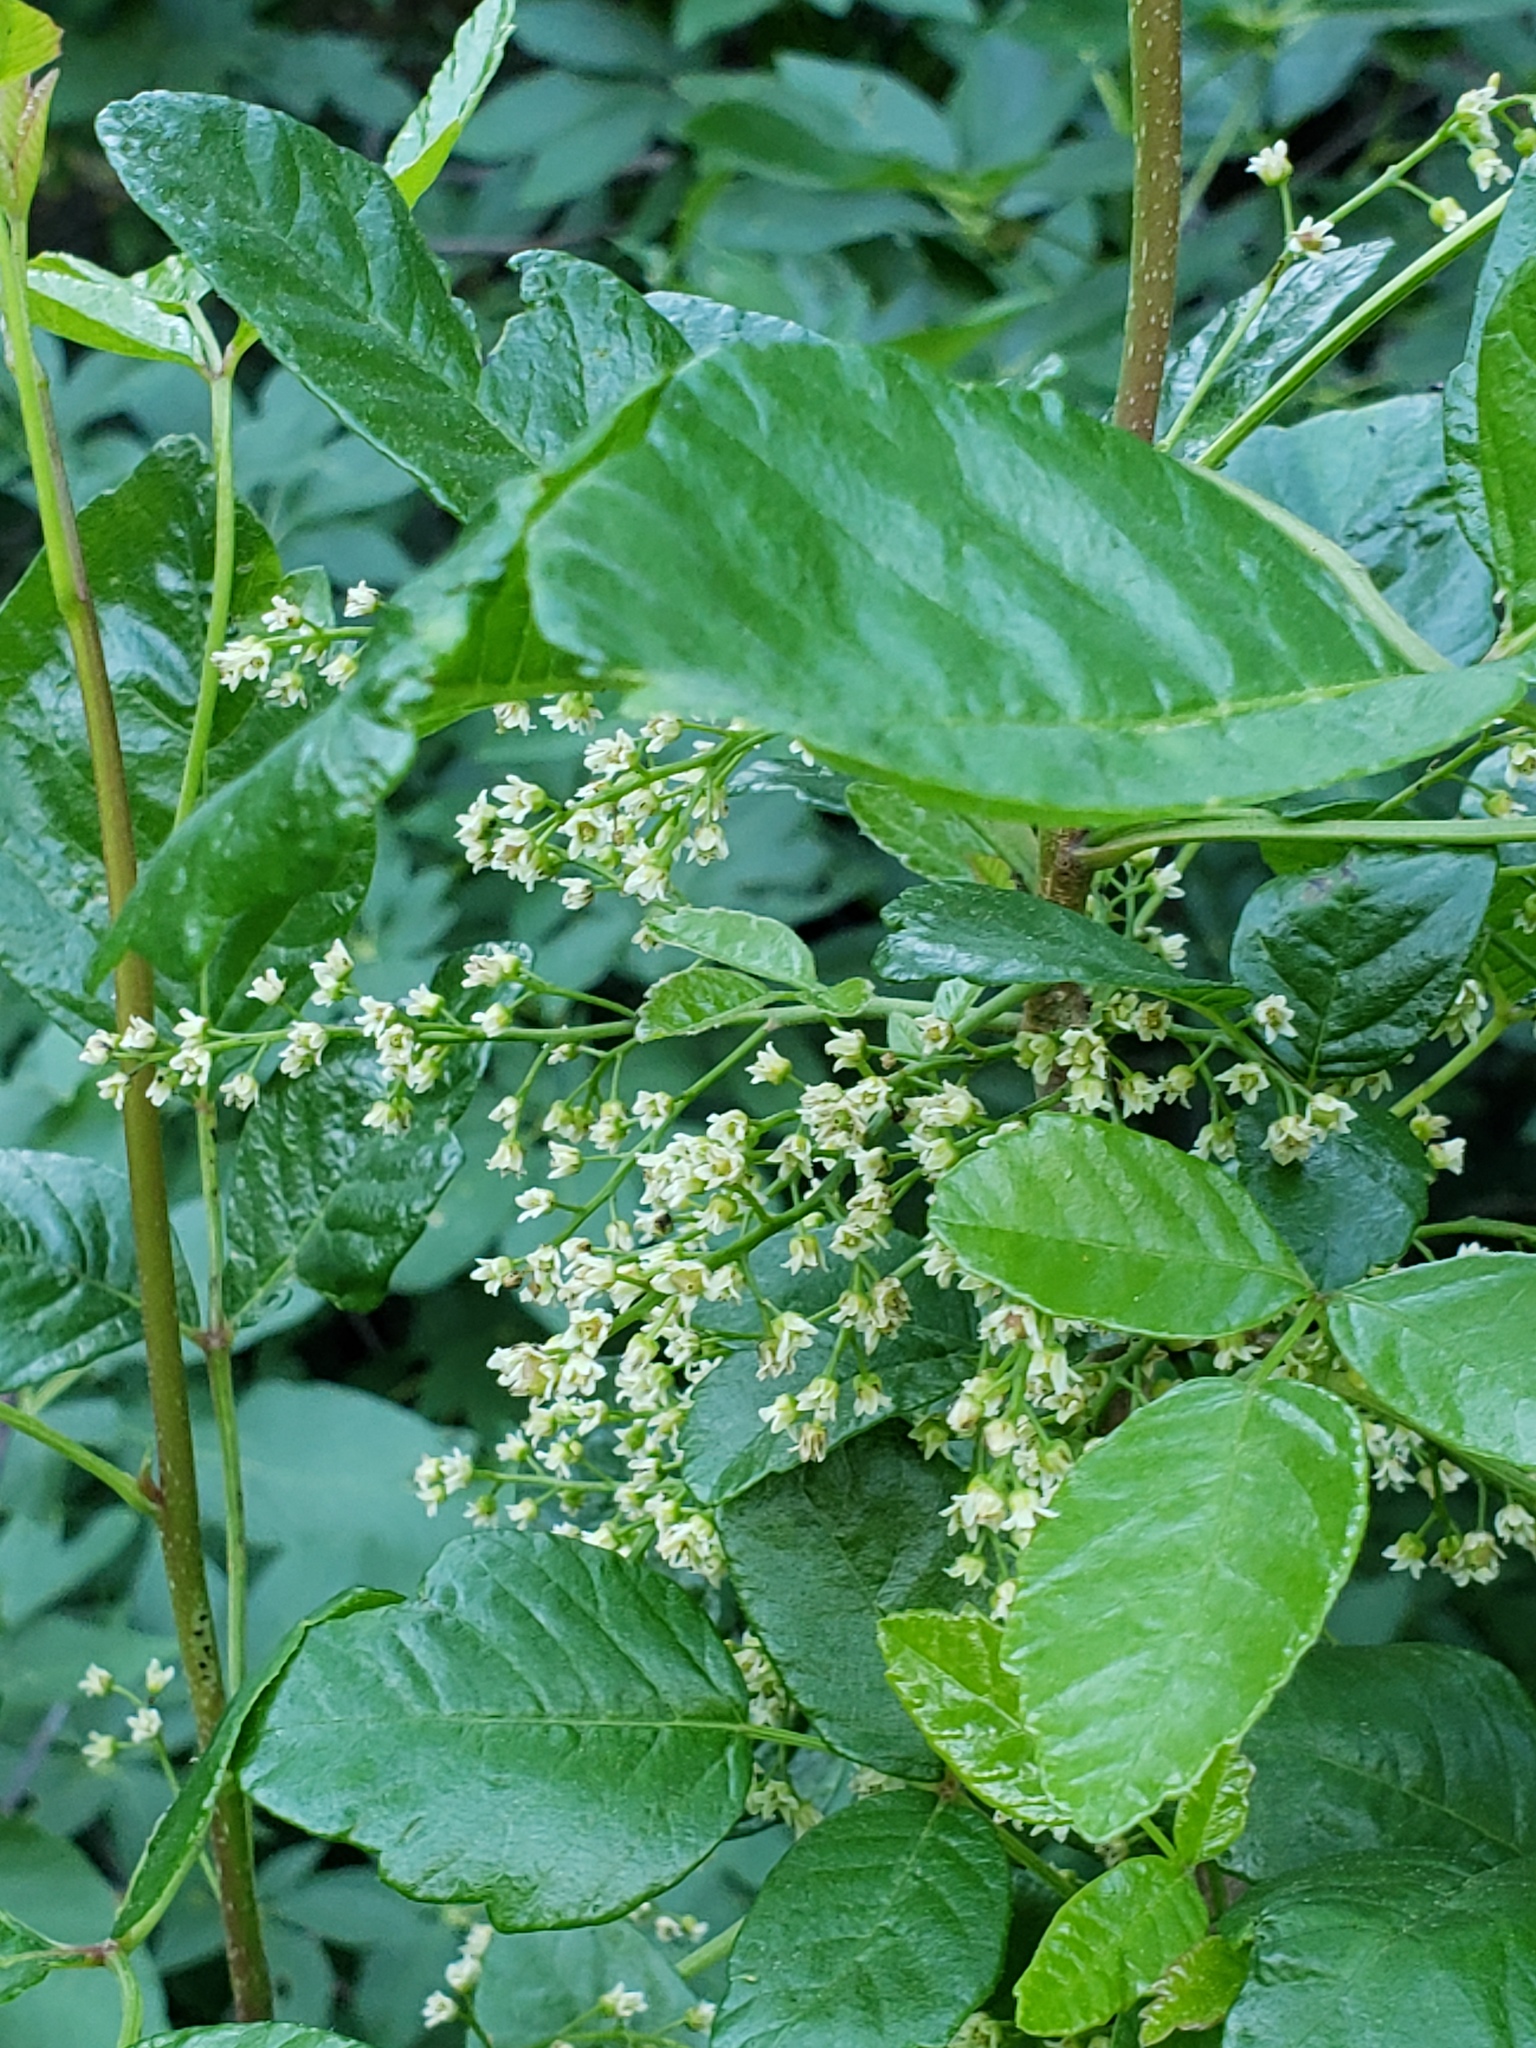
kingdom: Plantae
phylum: Tracheophyta
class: Magnoliopsida
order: Sapindales
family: Anacardiaceae
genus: Toxicodendron
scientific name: Toxicodendron diversilobum
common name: Pacific poison-oak
